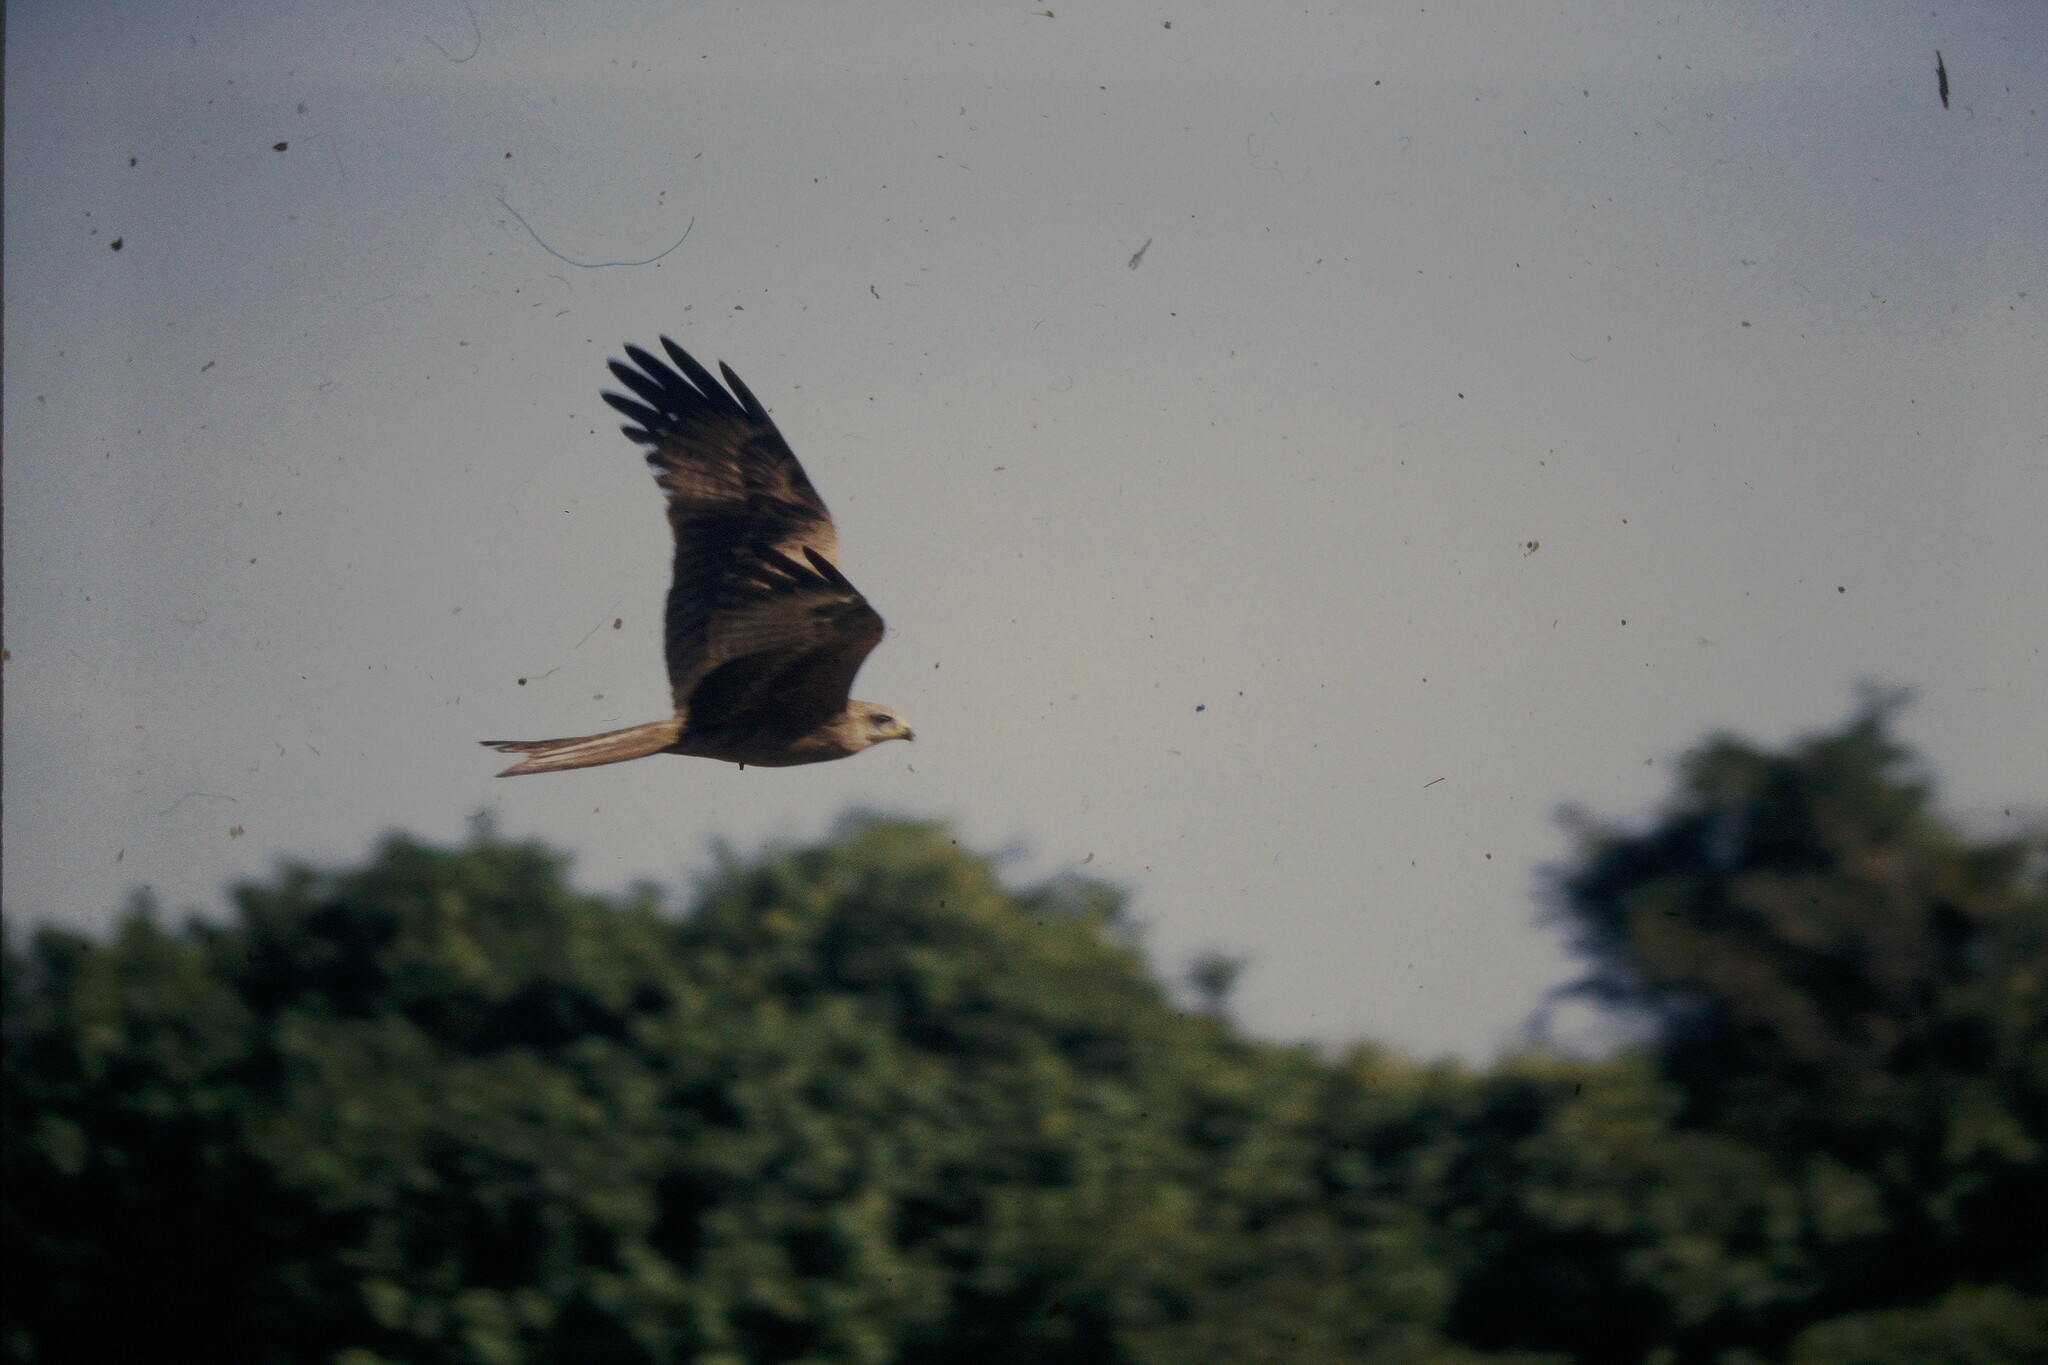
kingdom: Animalia
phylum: Chordata
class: Aves
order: Accipitriformes
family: Accipitridae
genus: Milvus
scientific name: Milvus migrans
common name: Black kite
